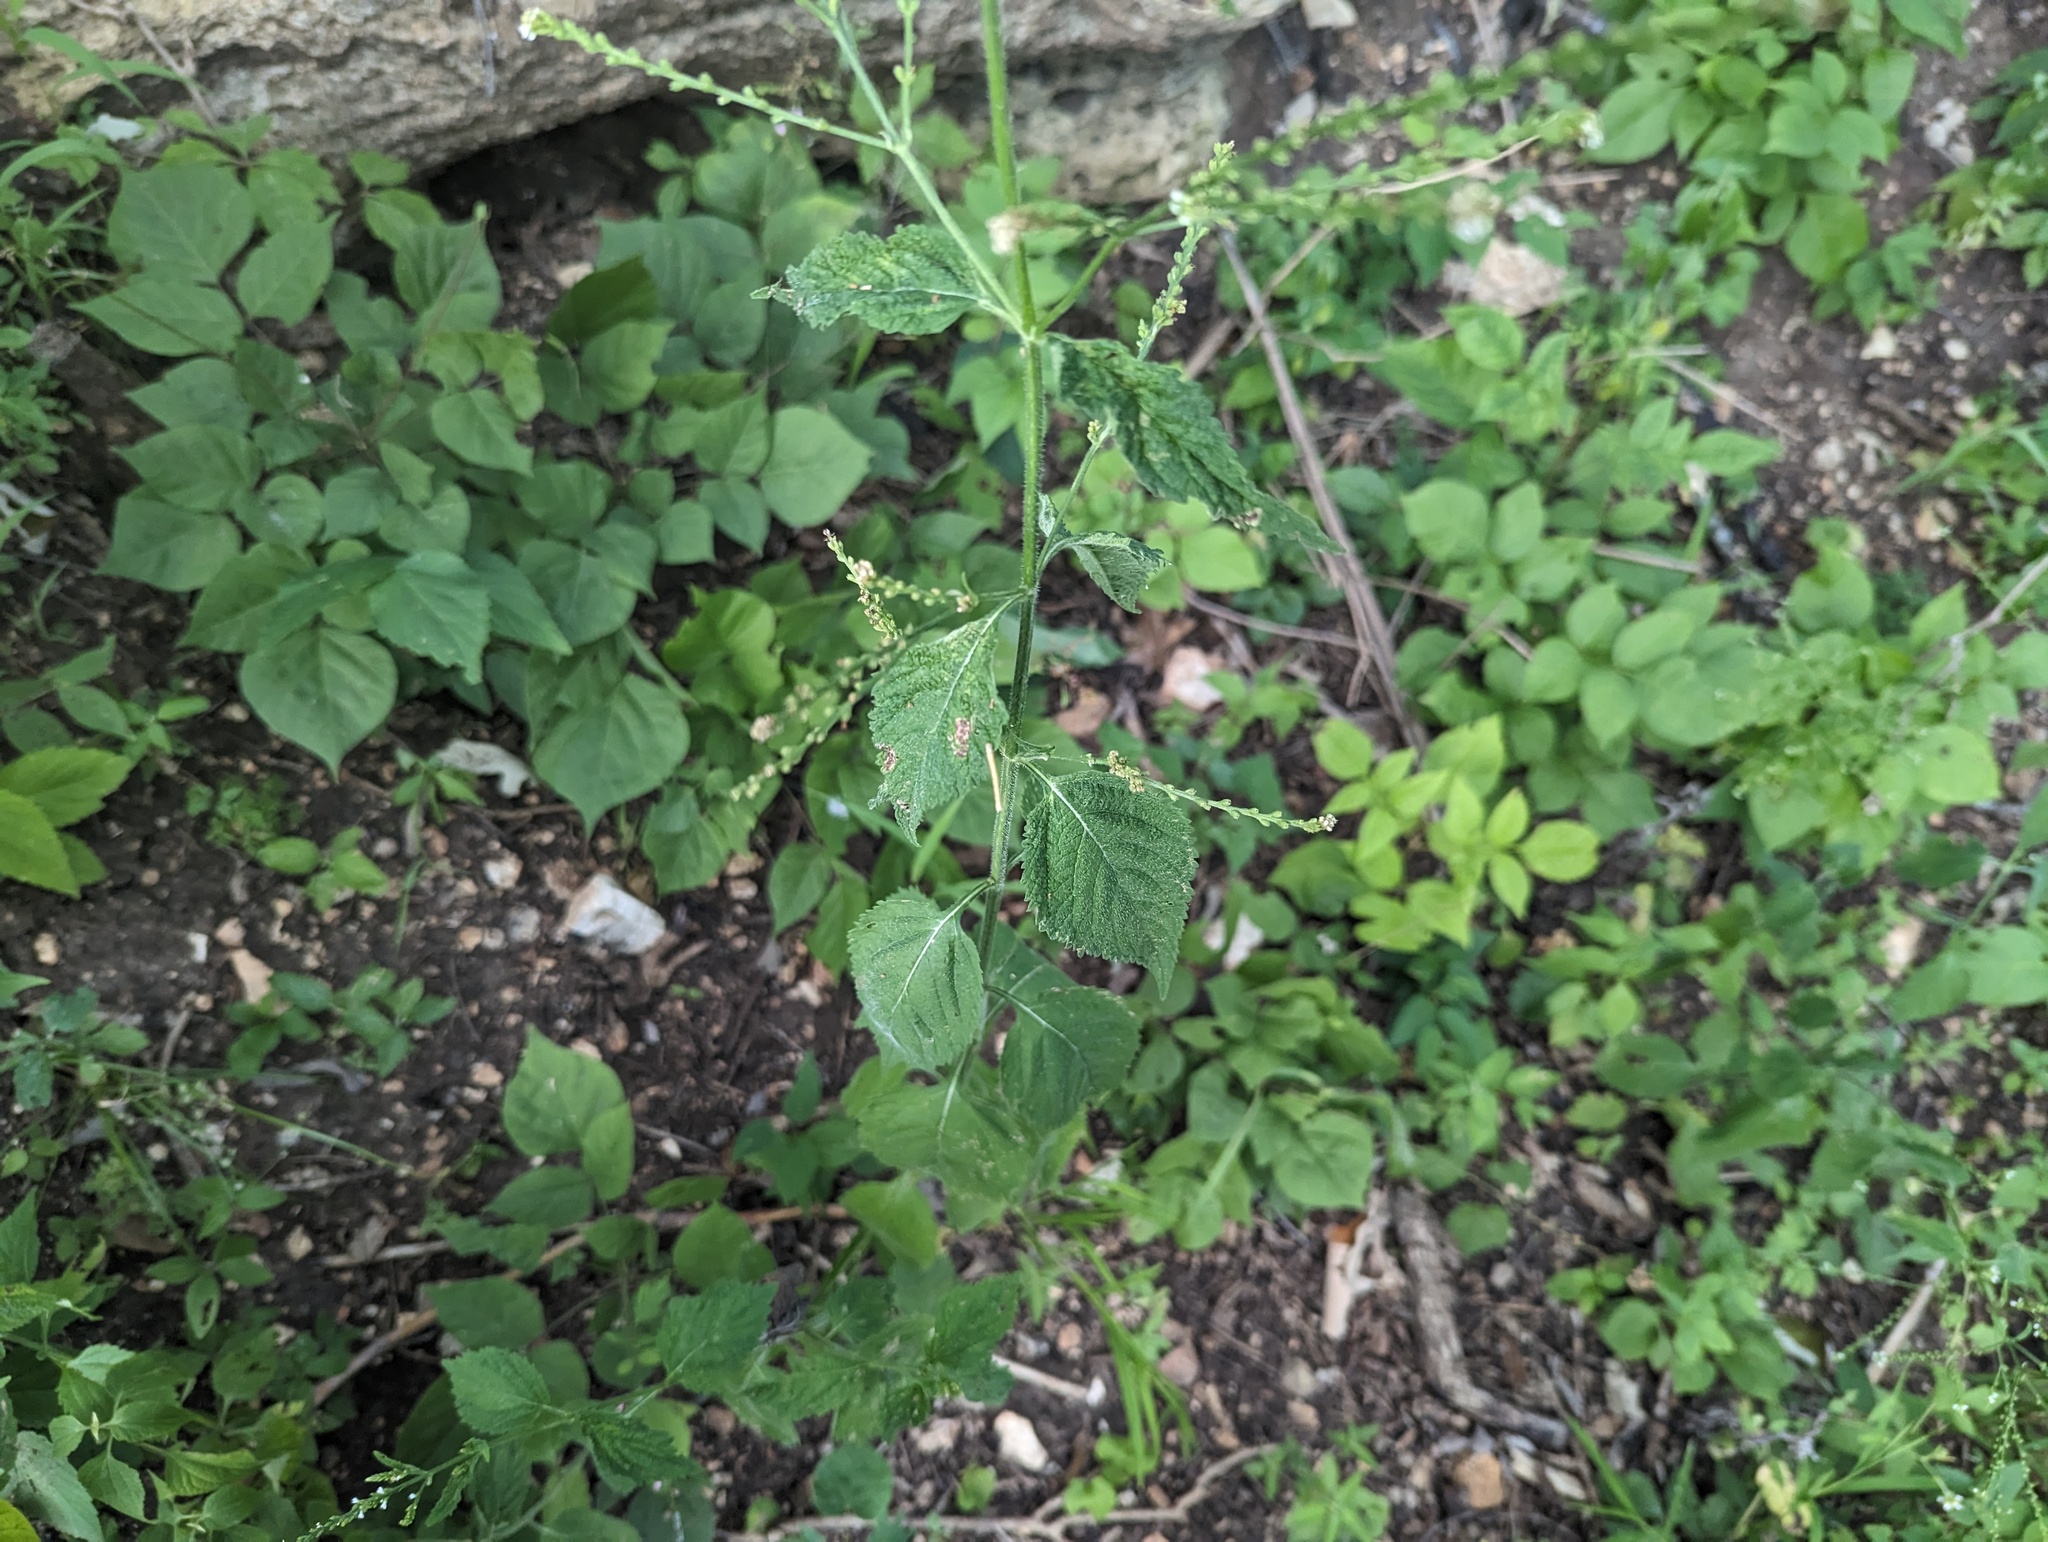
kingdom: Plantae
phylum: Tracheophyta
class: Magnoliopsida
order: Lamiales
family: Verbenaceae
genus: Verbena
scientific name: Verbena urticifolia
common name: Nettle-leaved vervain
